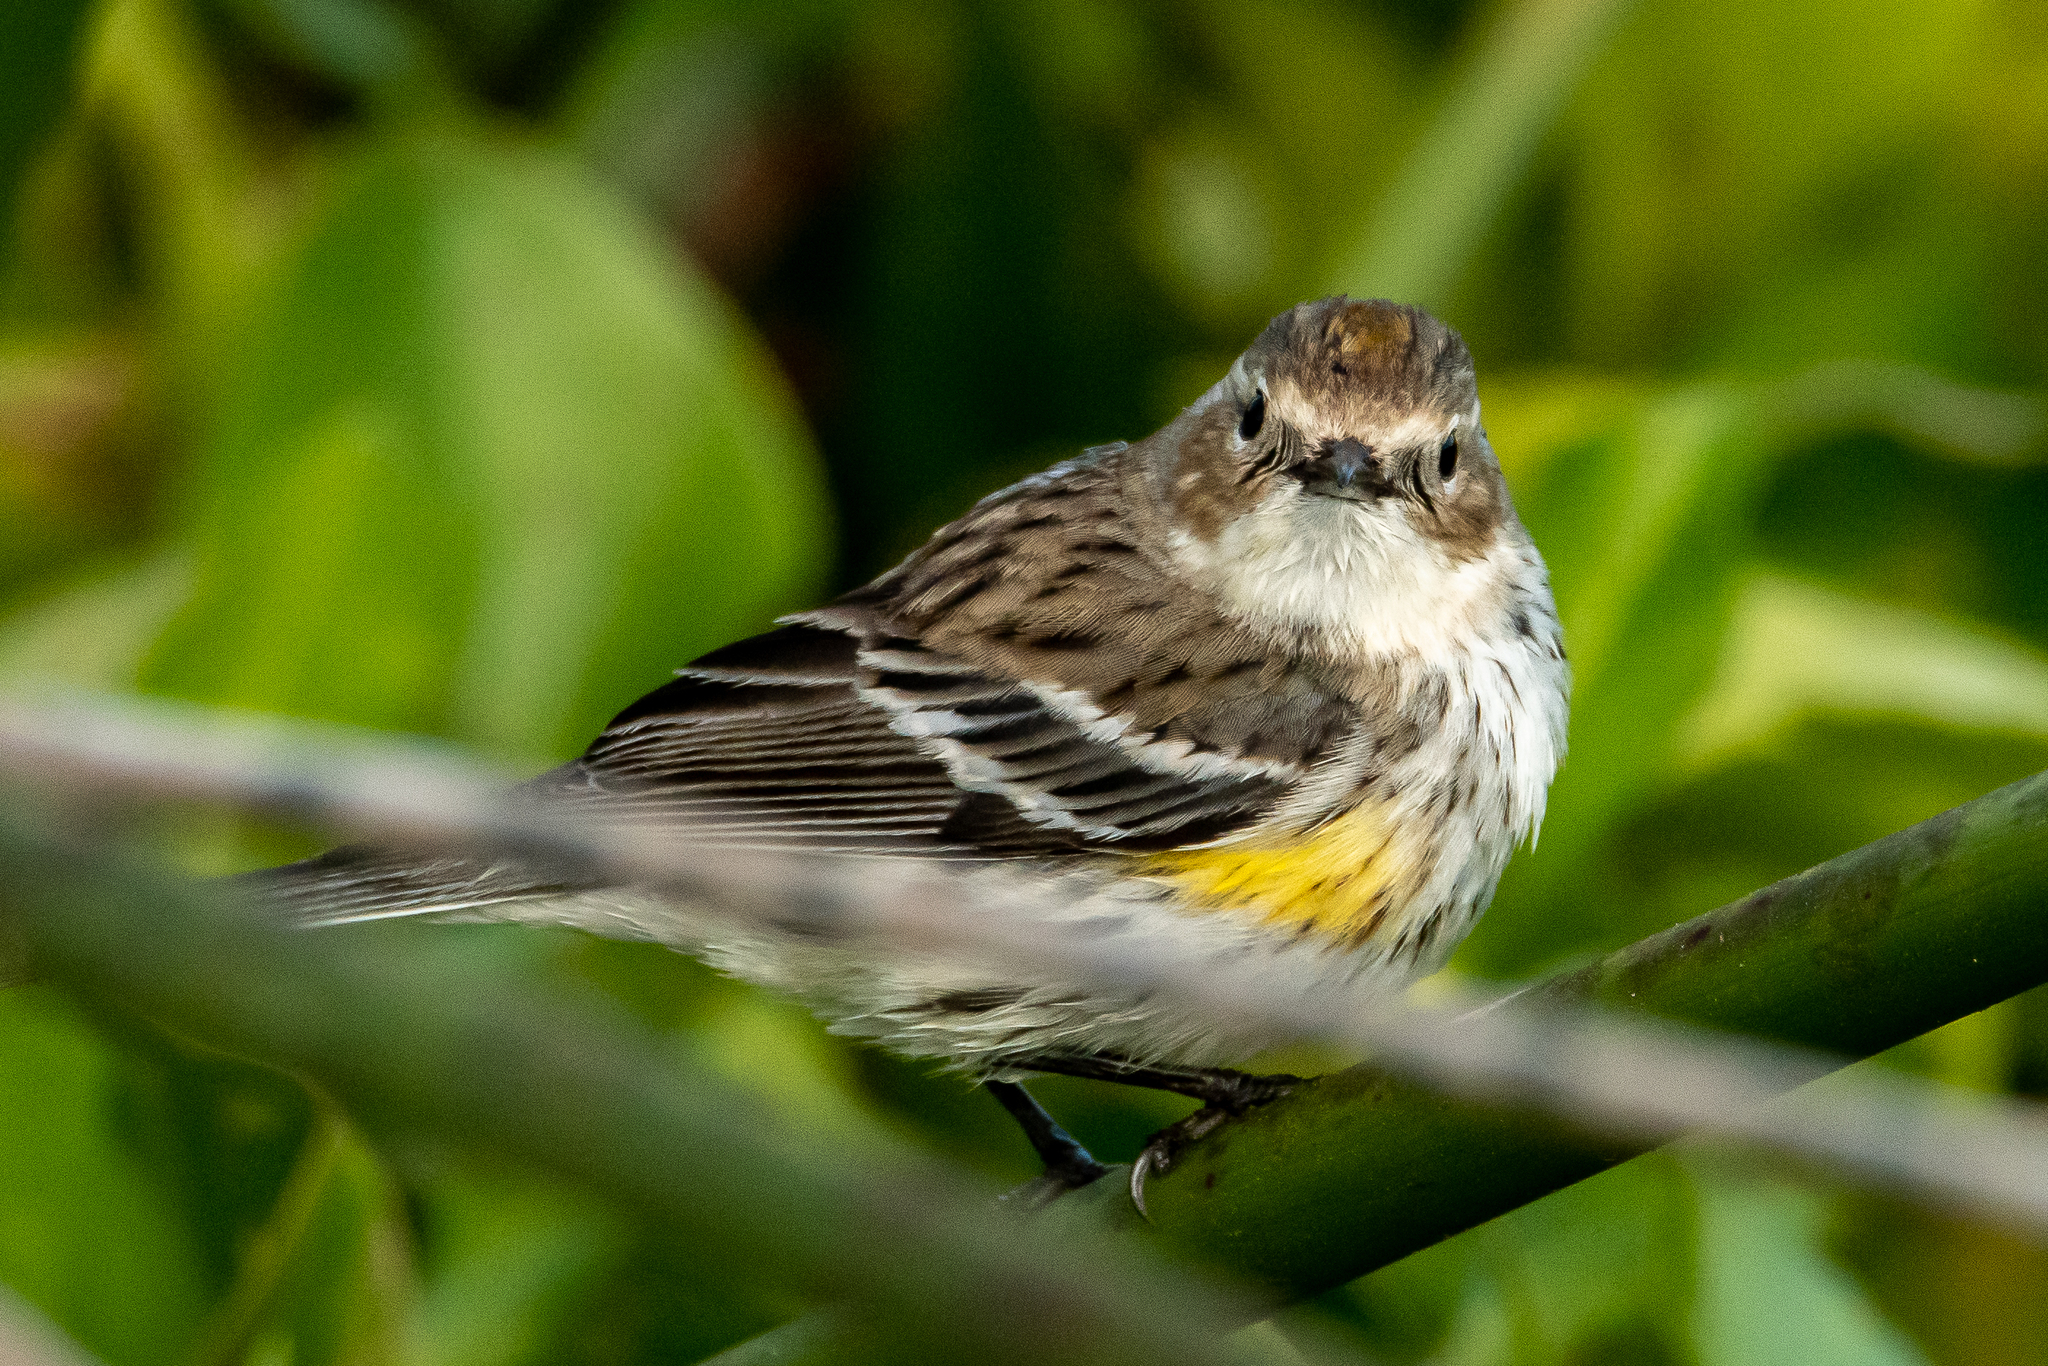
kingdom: Animalia
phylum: Chordata
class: Aves
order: Passeriformes
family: Parulidae
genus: Setophaga
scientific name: Setophaga coronata
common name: Myrtle warbler
